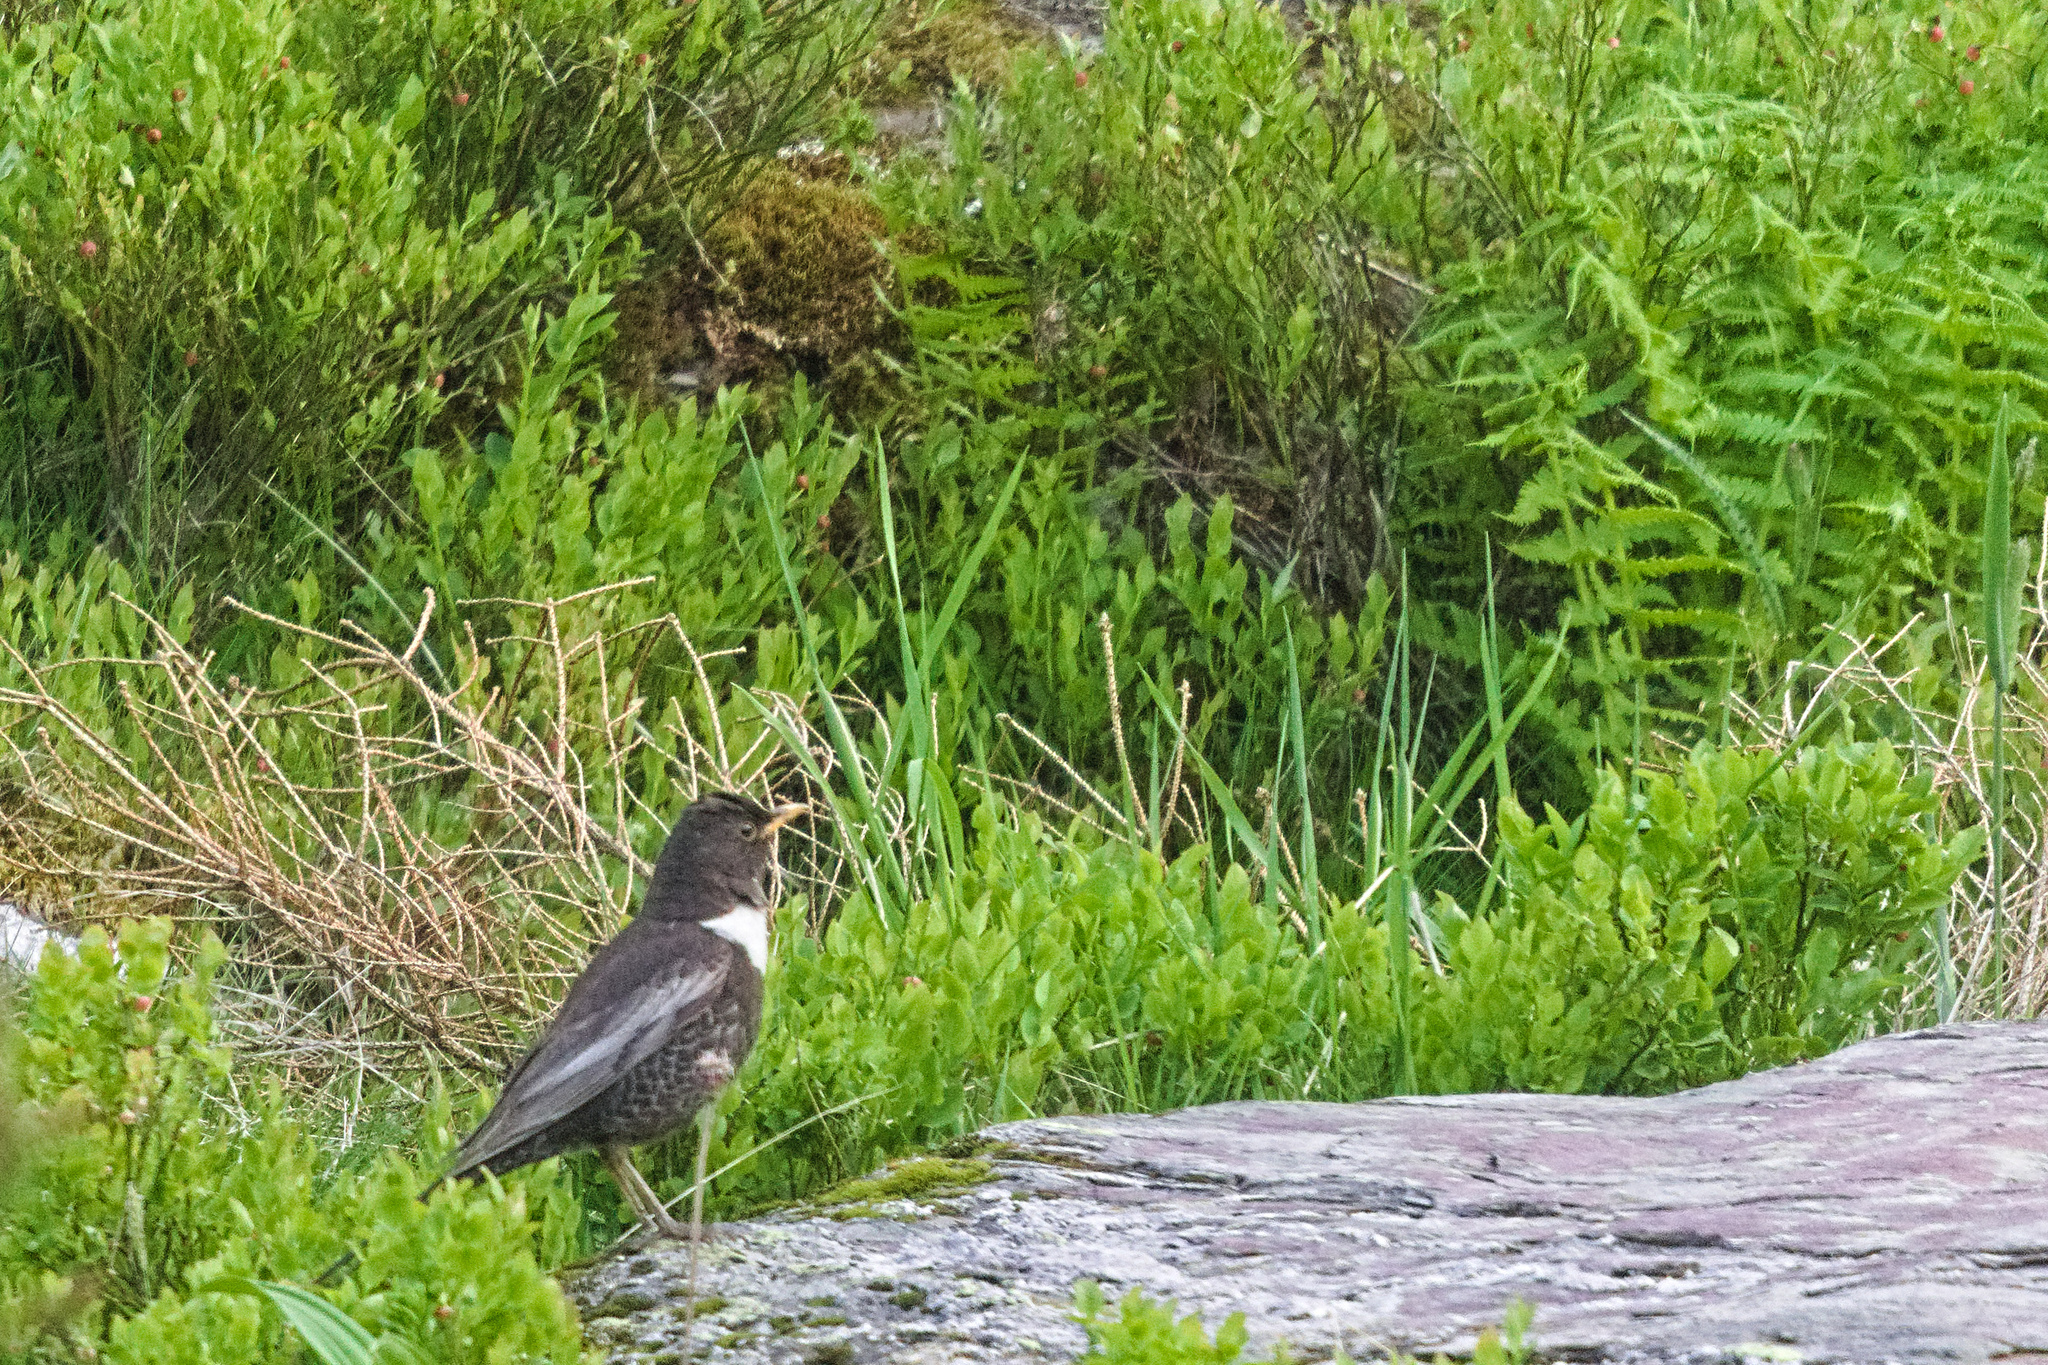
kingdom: Animalia
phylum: Chordata
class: Aves
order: Passeriformes
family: Turdidae
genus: Turdus
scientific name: Turdus torquatus
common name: Ring ouzel
